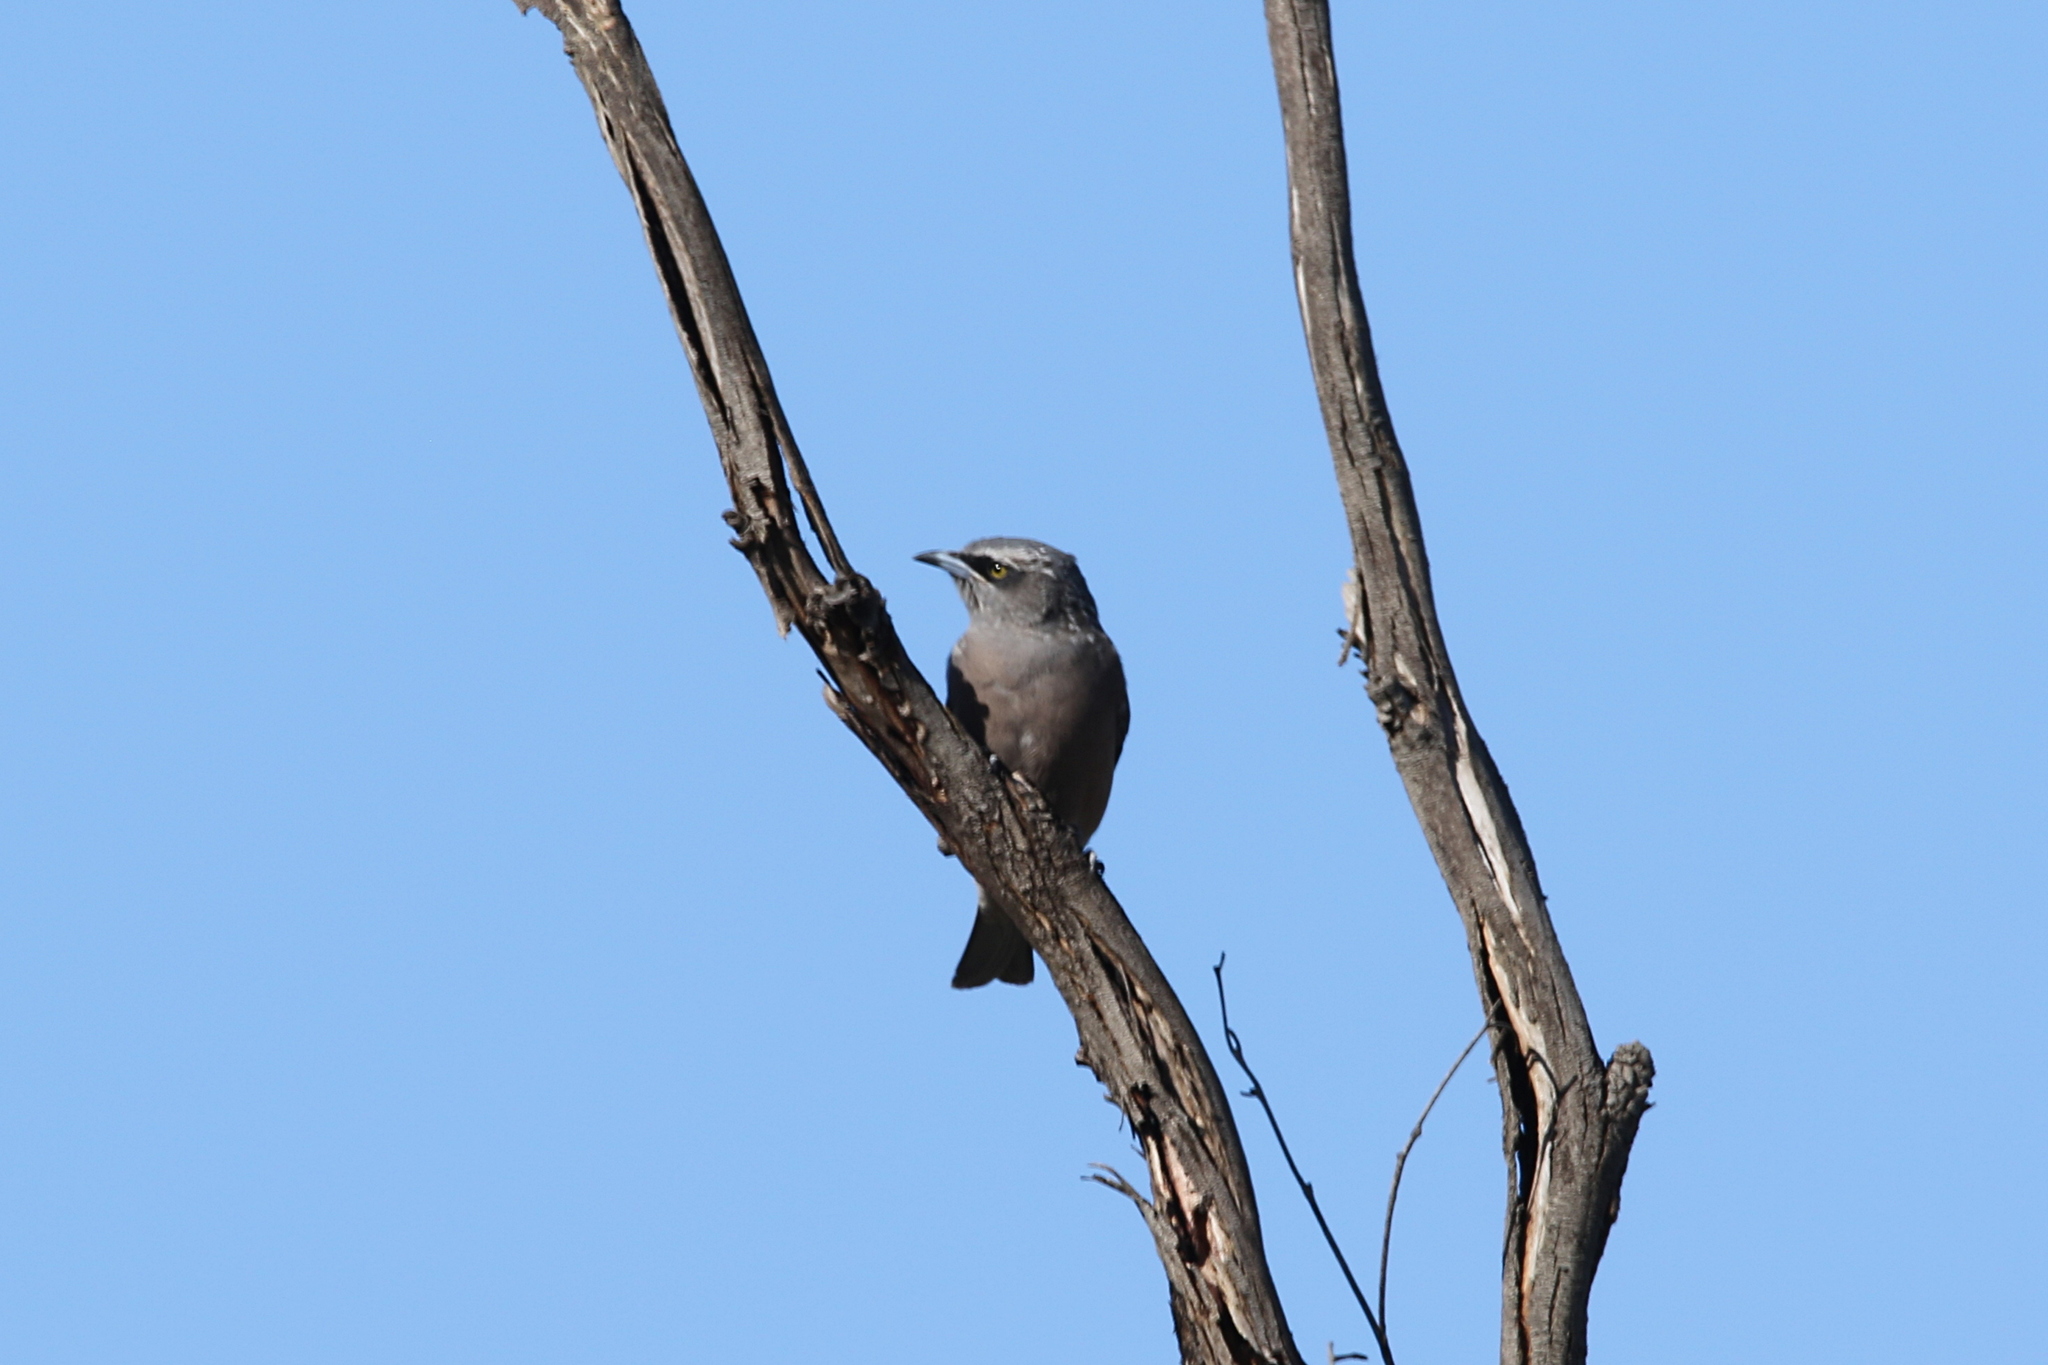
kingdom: Animalia
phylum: Chordata
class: Aves
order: Passeriformes
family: Artamidae
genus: Artamus
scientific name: Artamus superciliosus
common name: White-browed woodswallow
